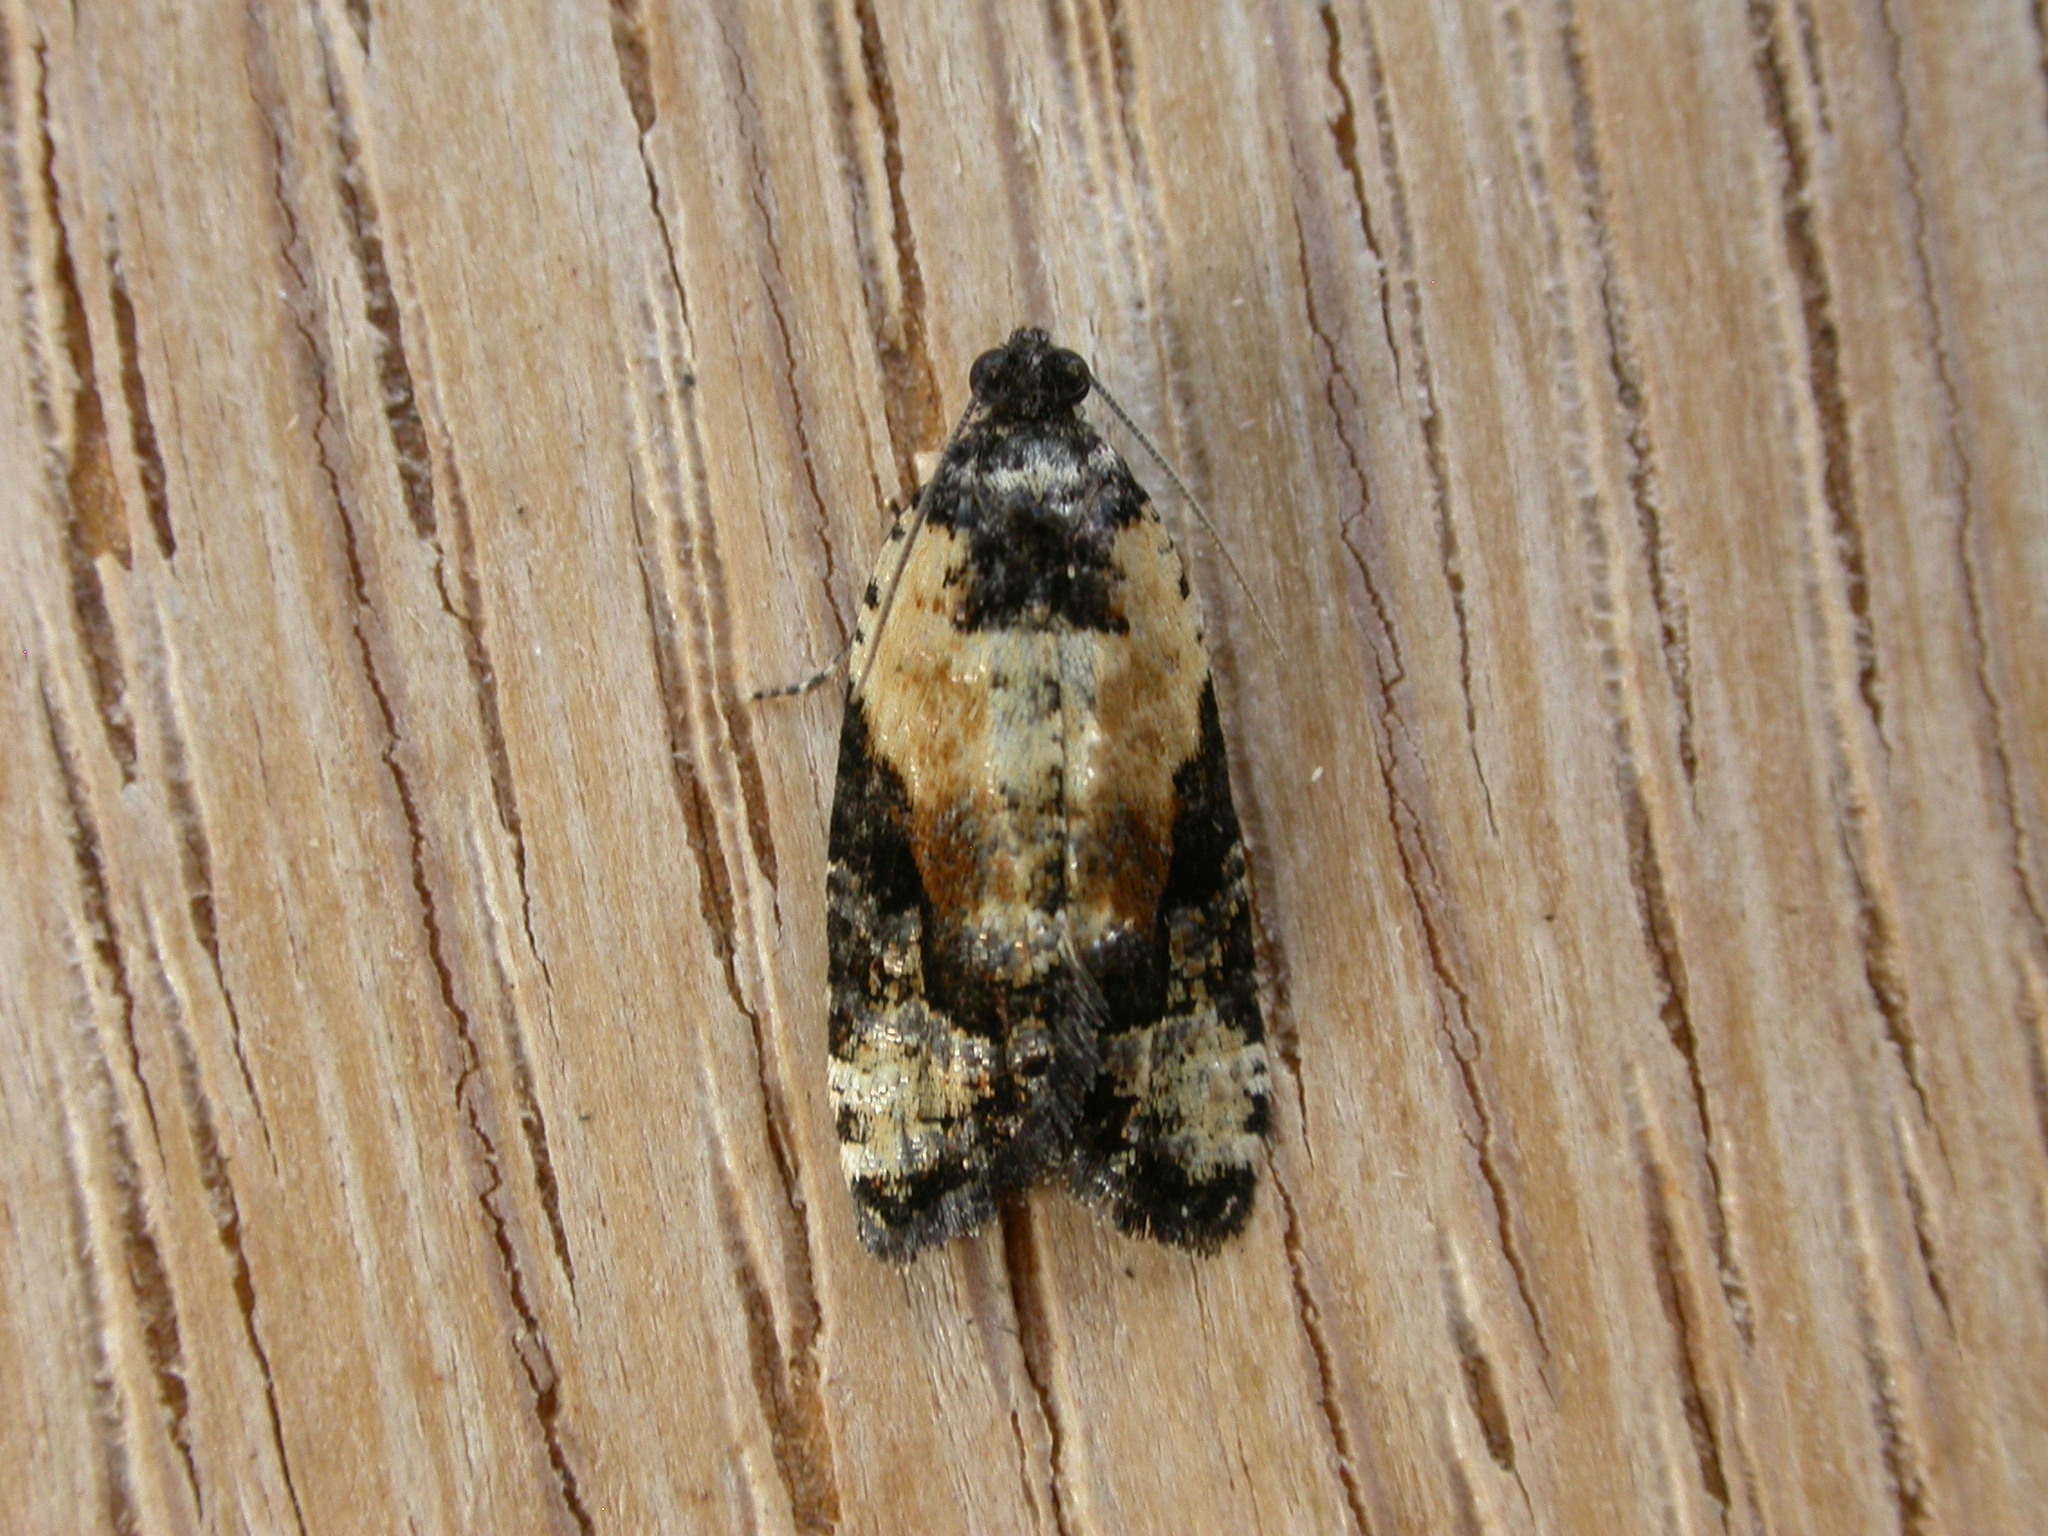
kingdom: Animalia
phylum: Arthropoda
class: Insecta
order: Lepidoptera
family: Tortricidae
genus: Asthenoptycha
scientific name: Asthenoptycha iriodes
